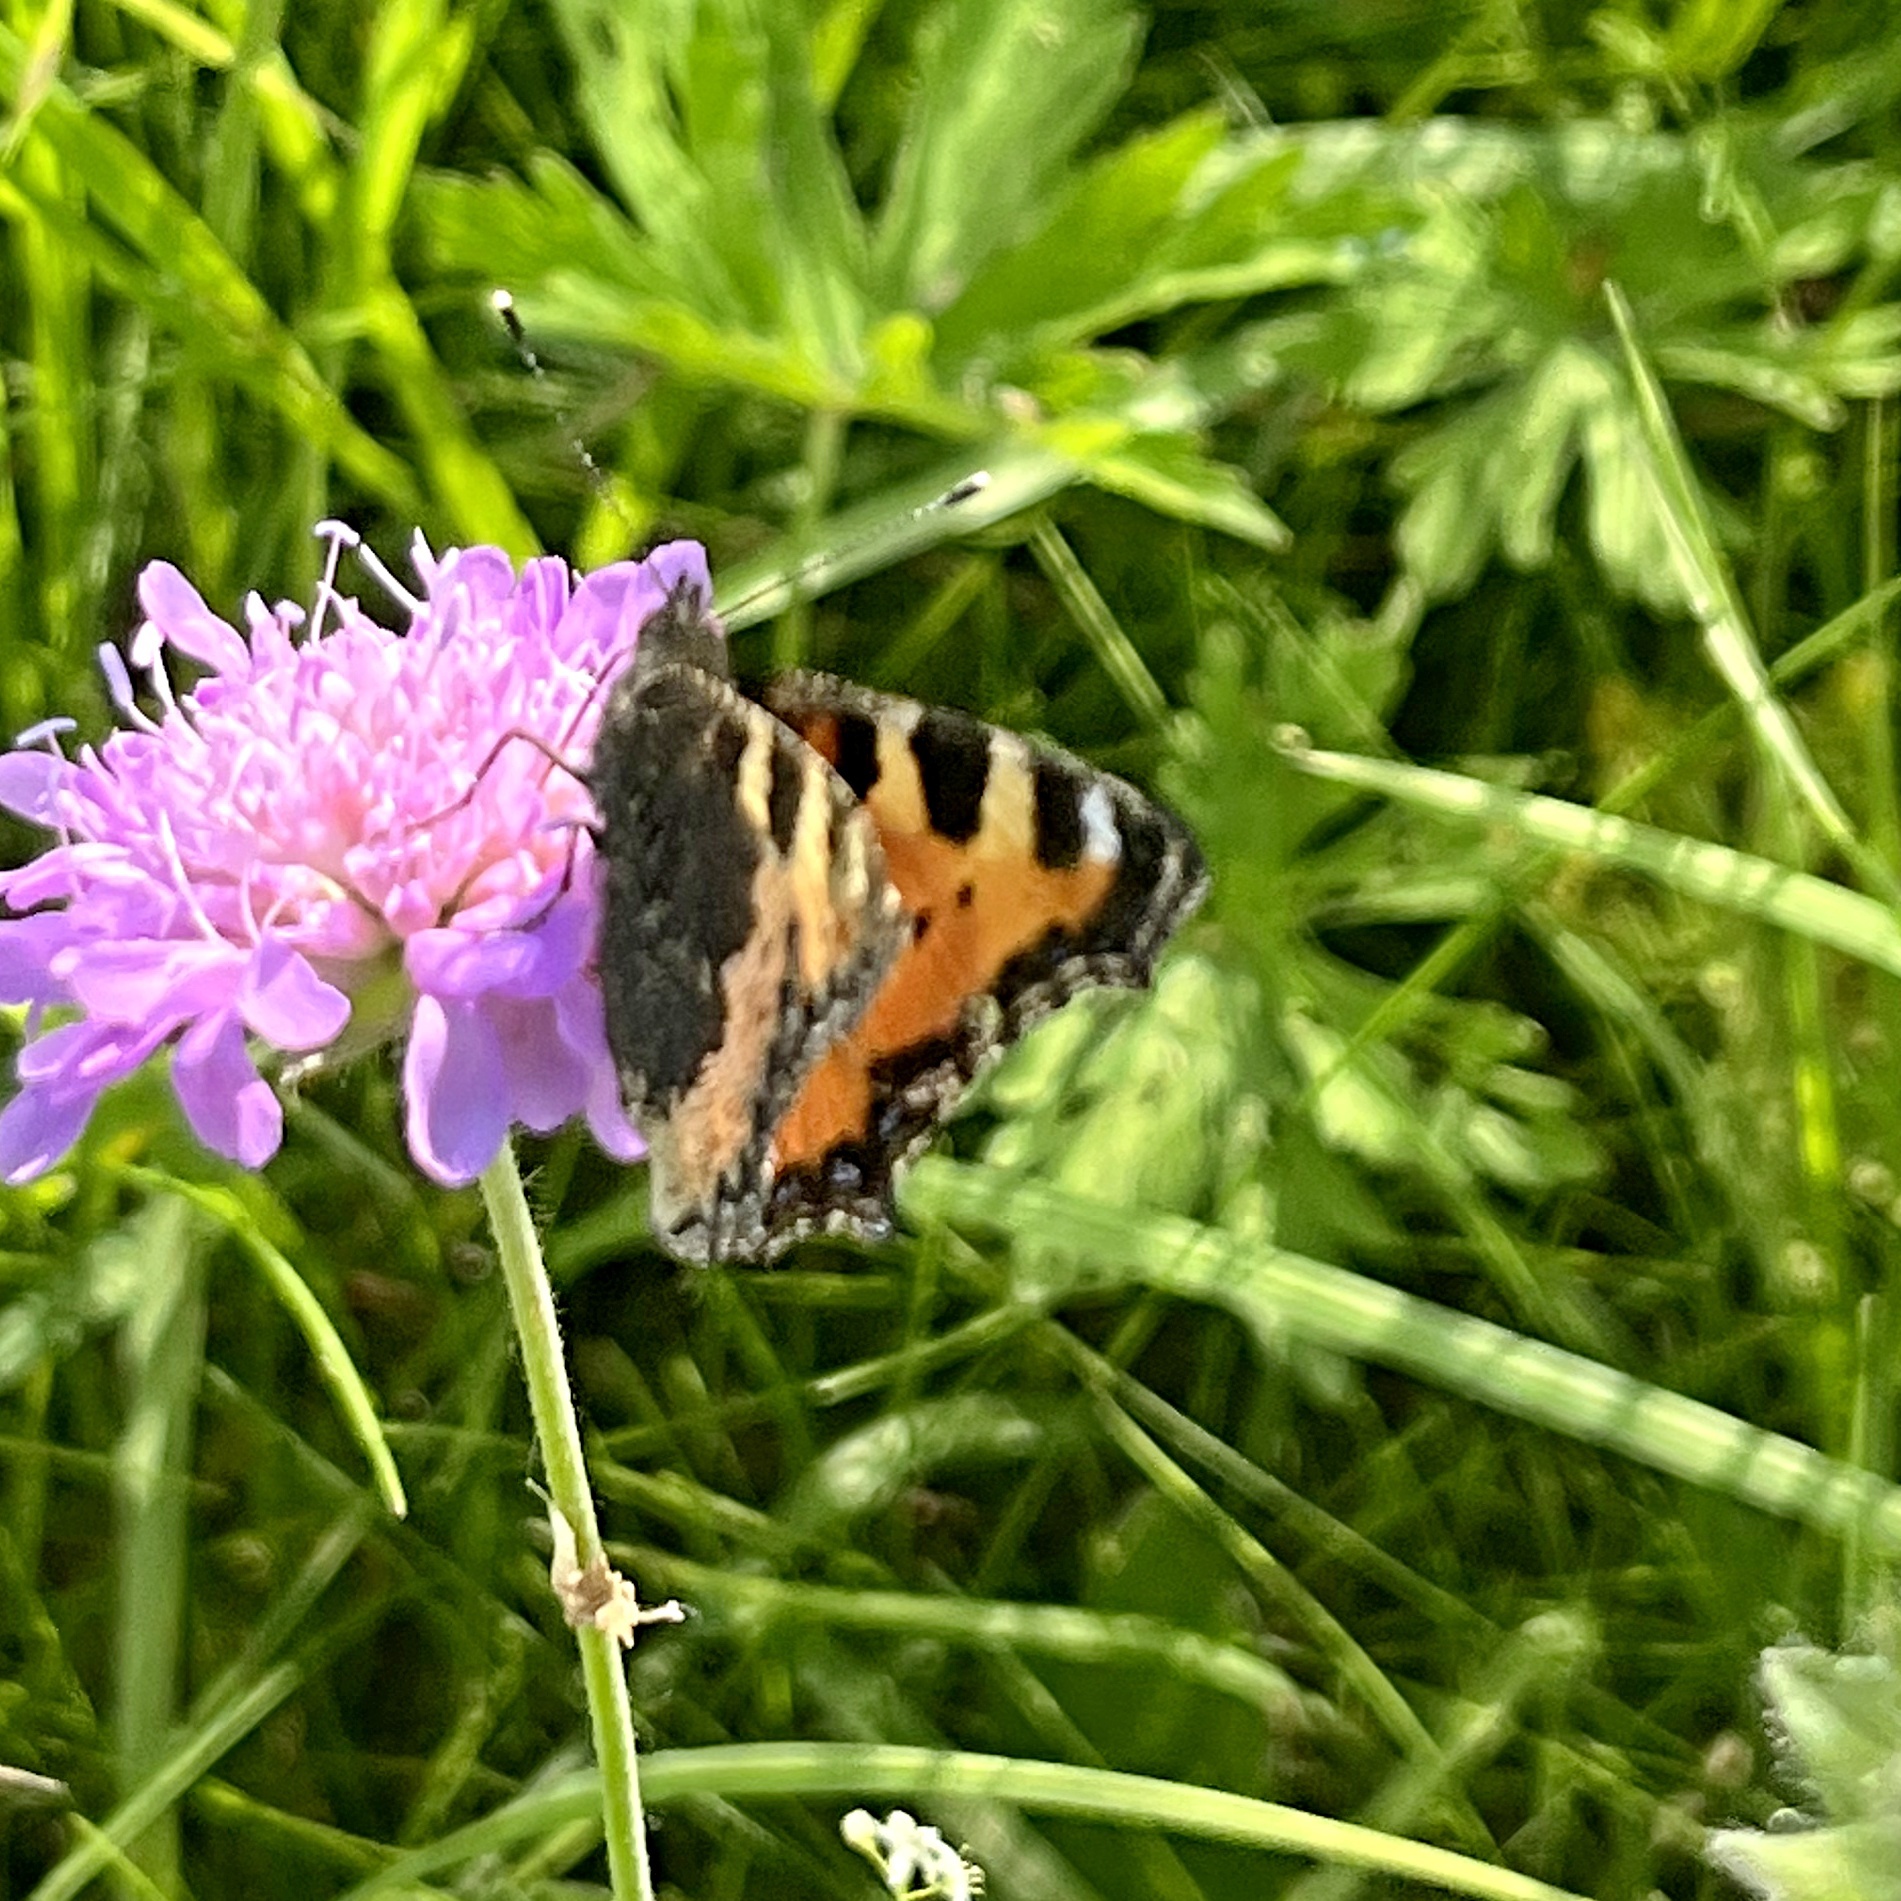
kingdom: Animalia
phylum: Arthropoda
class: Insecta
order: Lepidoptera
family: Nymphalidae
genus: Aglais
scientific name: Aglais urticae
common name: Small tortoiseshell
